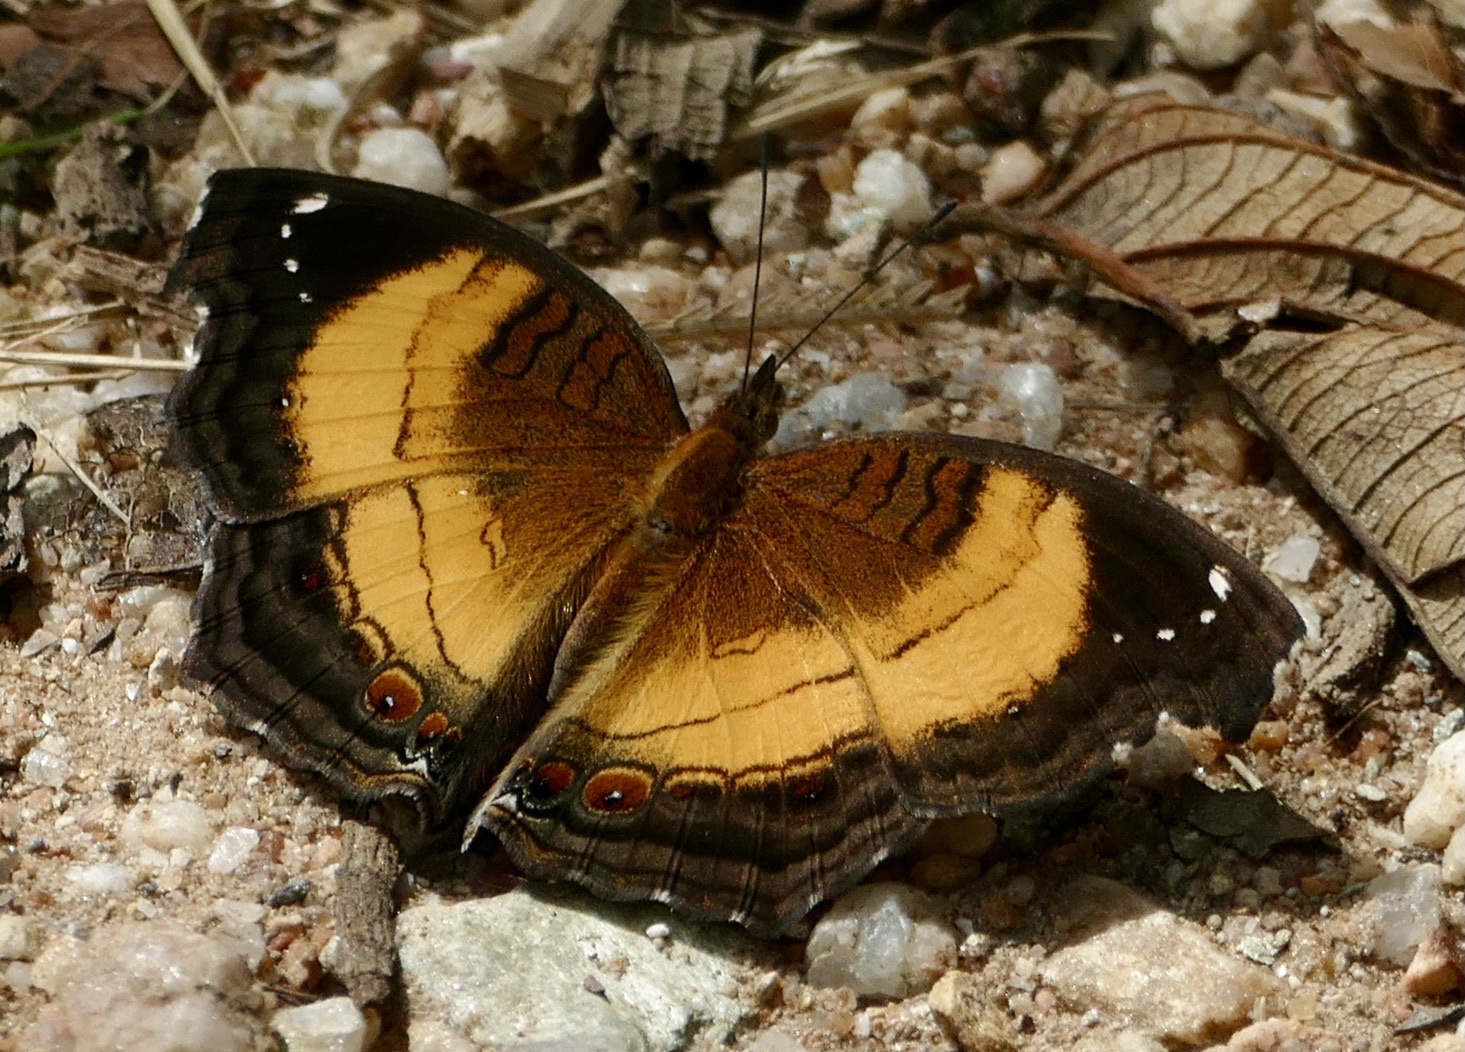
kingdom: Animalia
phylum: Arthropoda
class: Insecta
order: Lepidoptera
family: Nymphalidae
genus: Junonia
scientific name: Junonia terea
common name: Soldier pansy
